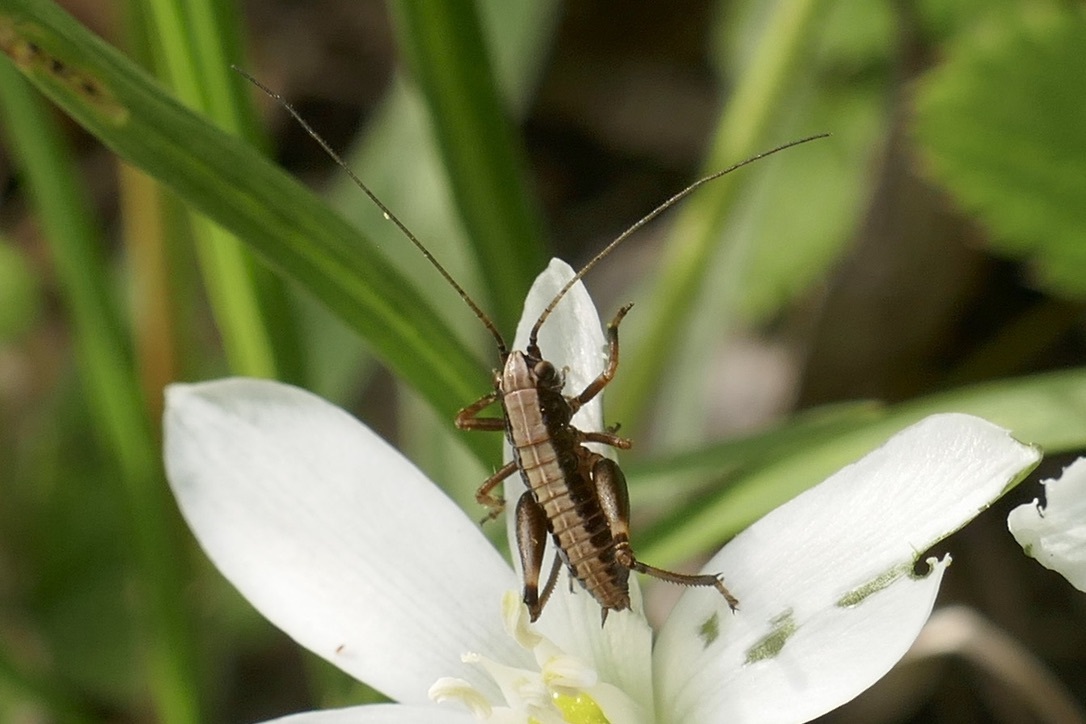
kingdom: Animalia
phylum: Arthropoda
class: Insecta
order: Orthoptera
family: Tettigoniidae
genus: Pholidoptera
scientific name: Pholidoptera griseoaptera
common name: Dark bush-cricket
